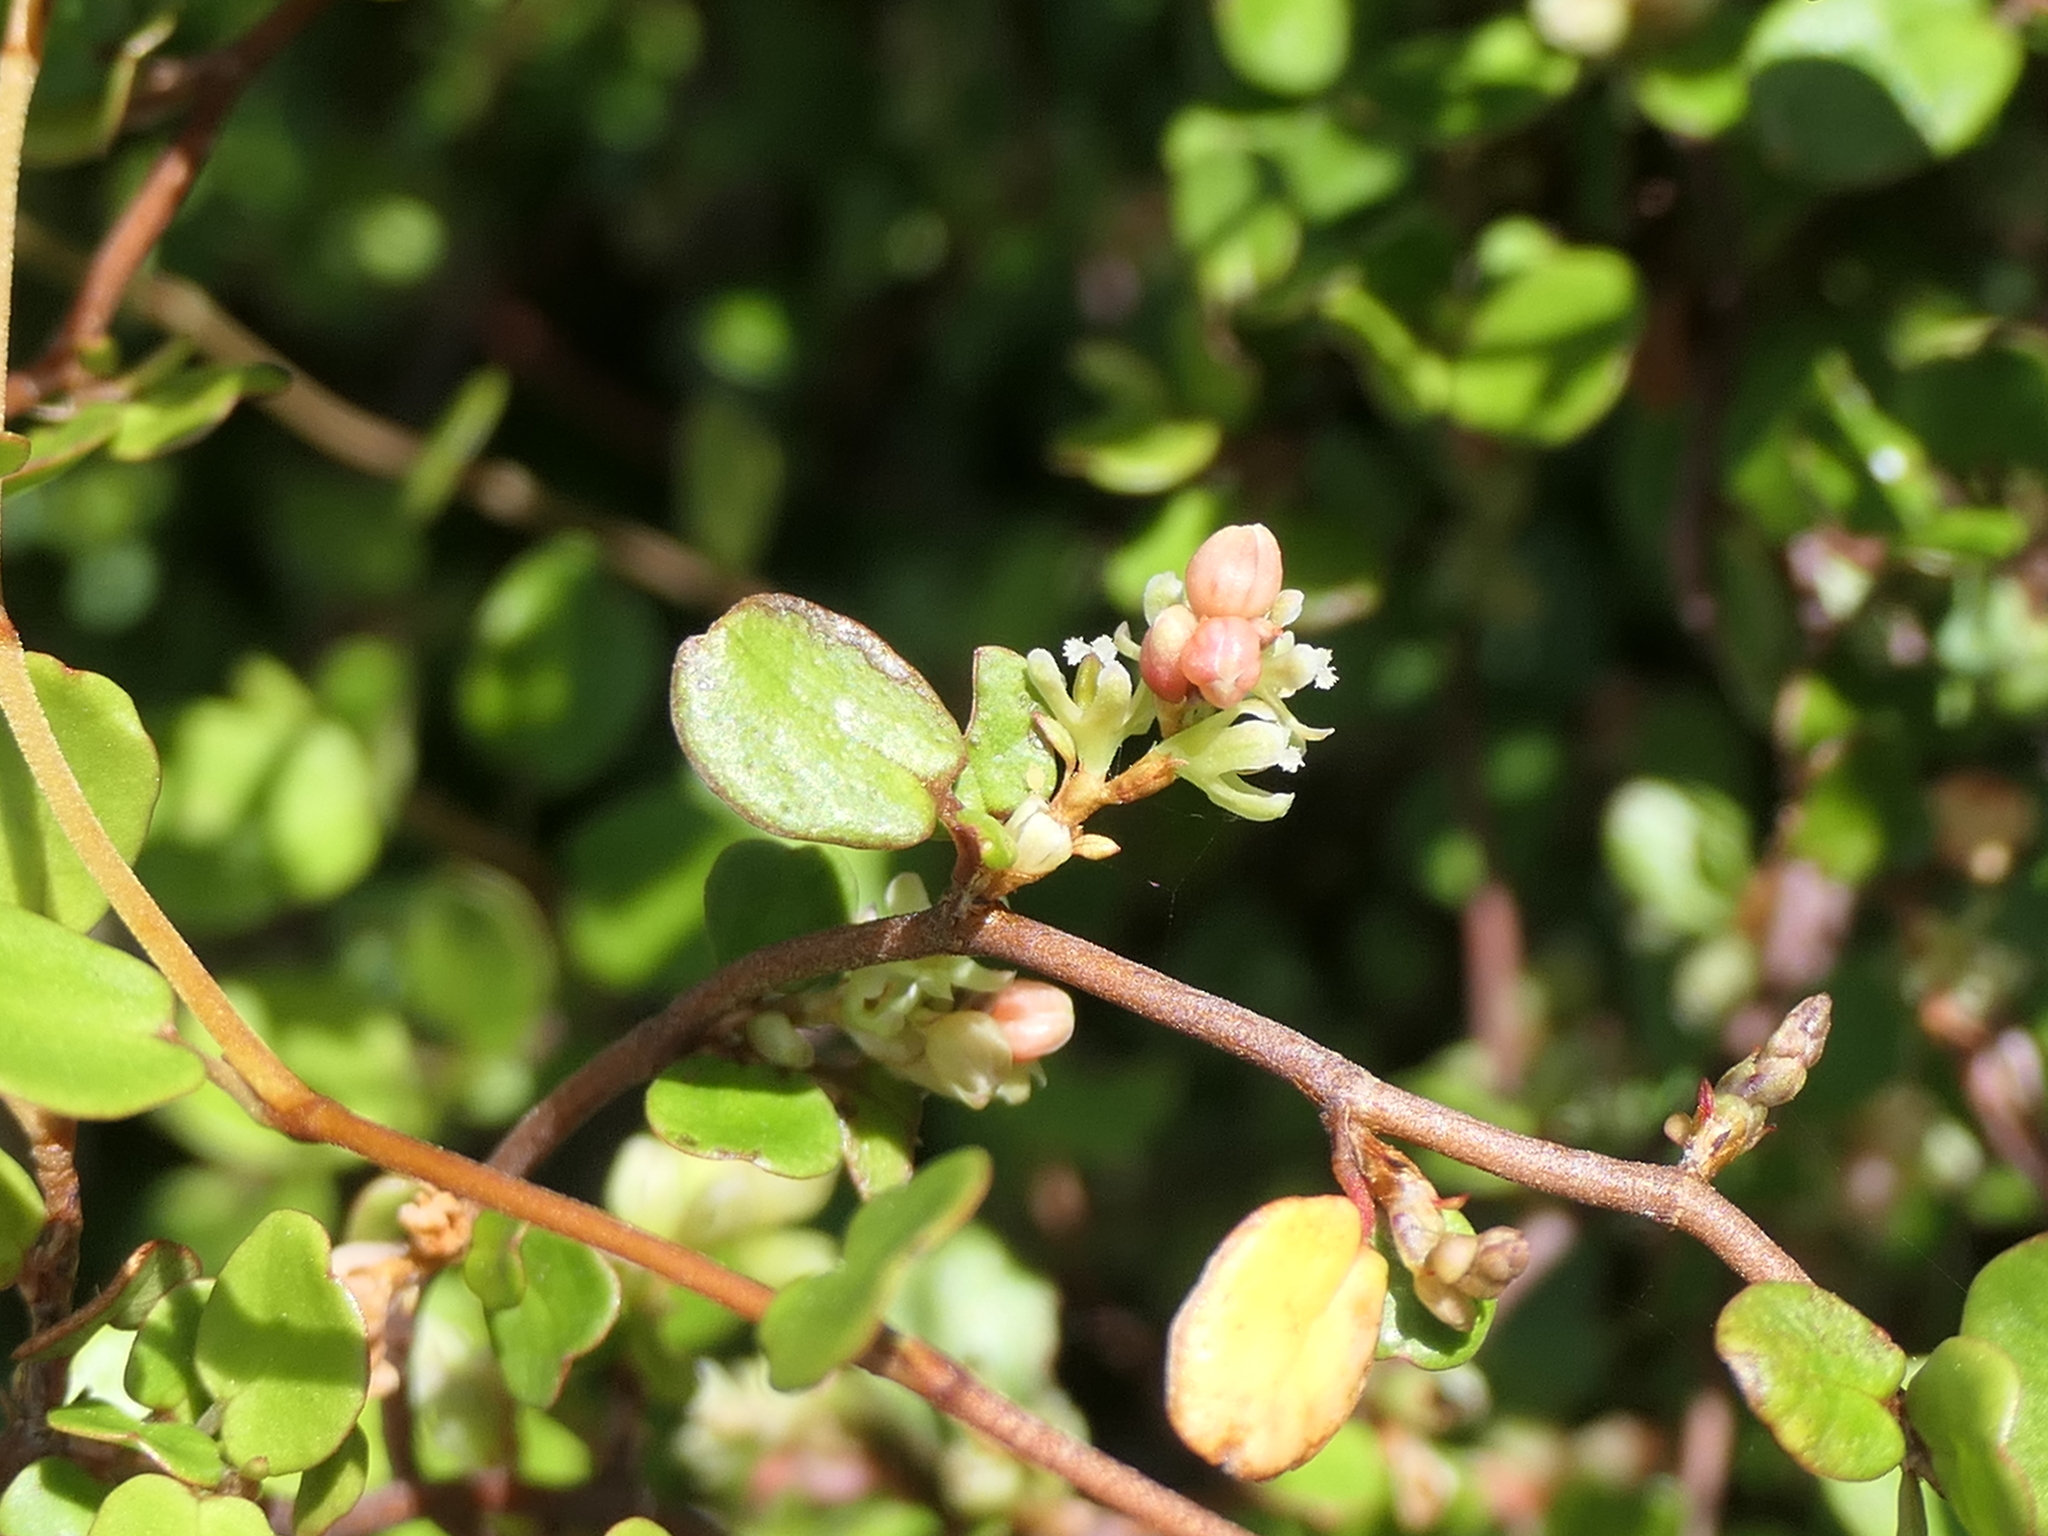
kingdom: Plantae
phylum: Tracheophyta
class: Magnoliopsida
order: Caryophyllales
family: Polygonaceae
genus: Muehlenbeckia
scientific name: Muehlenbeckia complexa
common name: Wireplant
